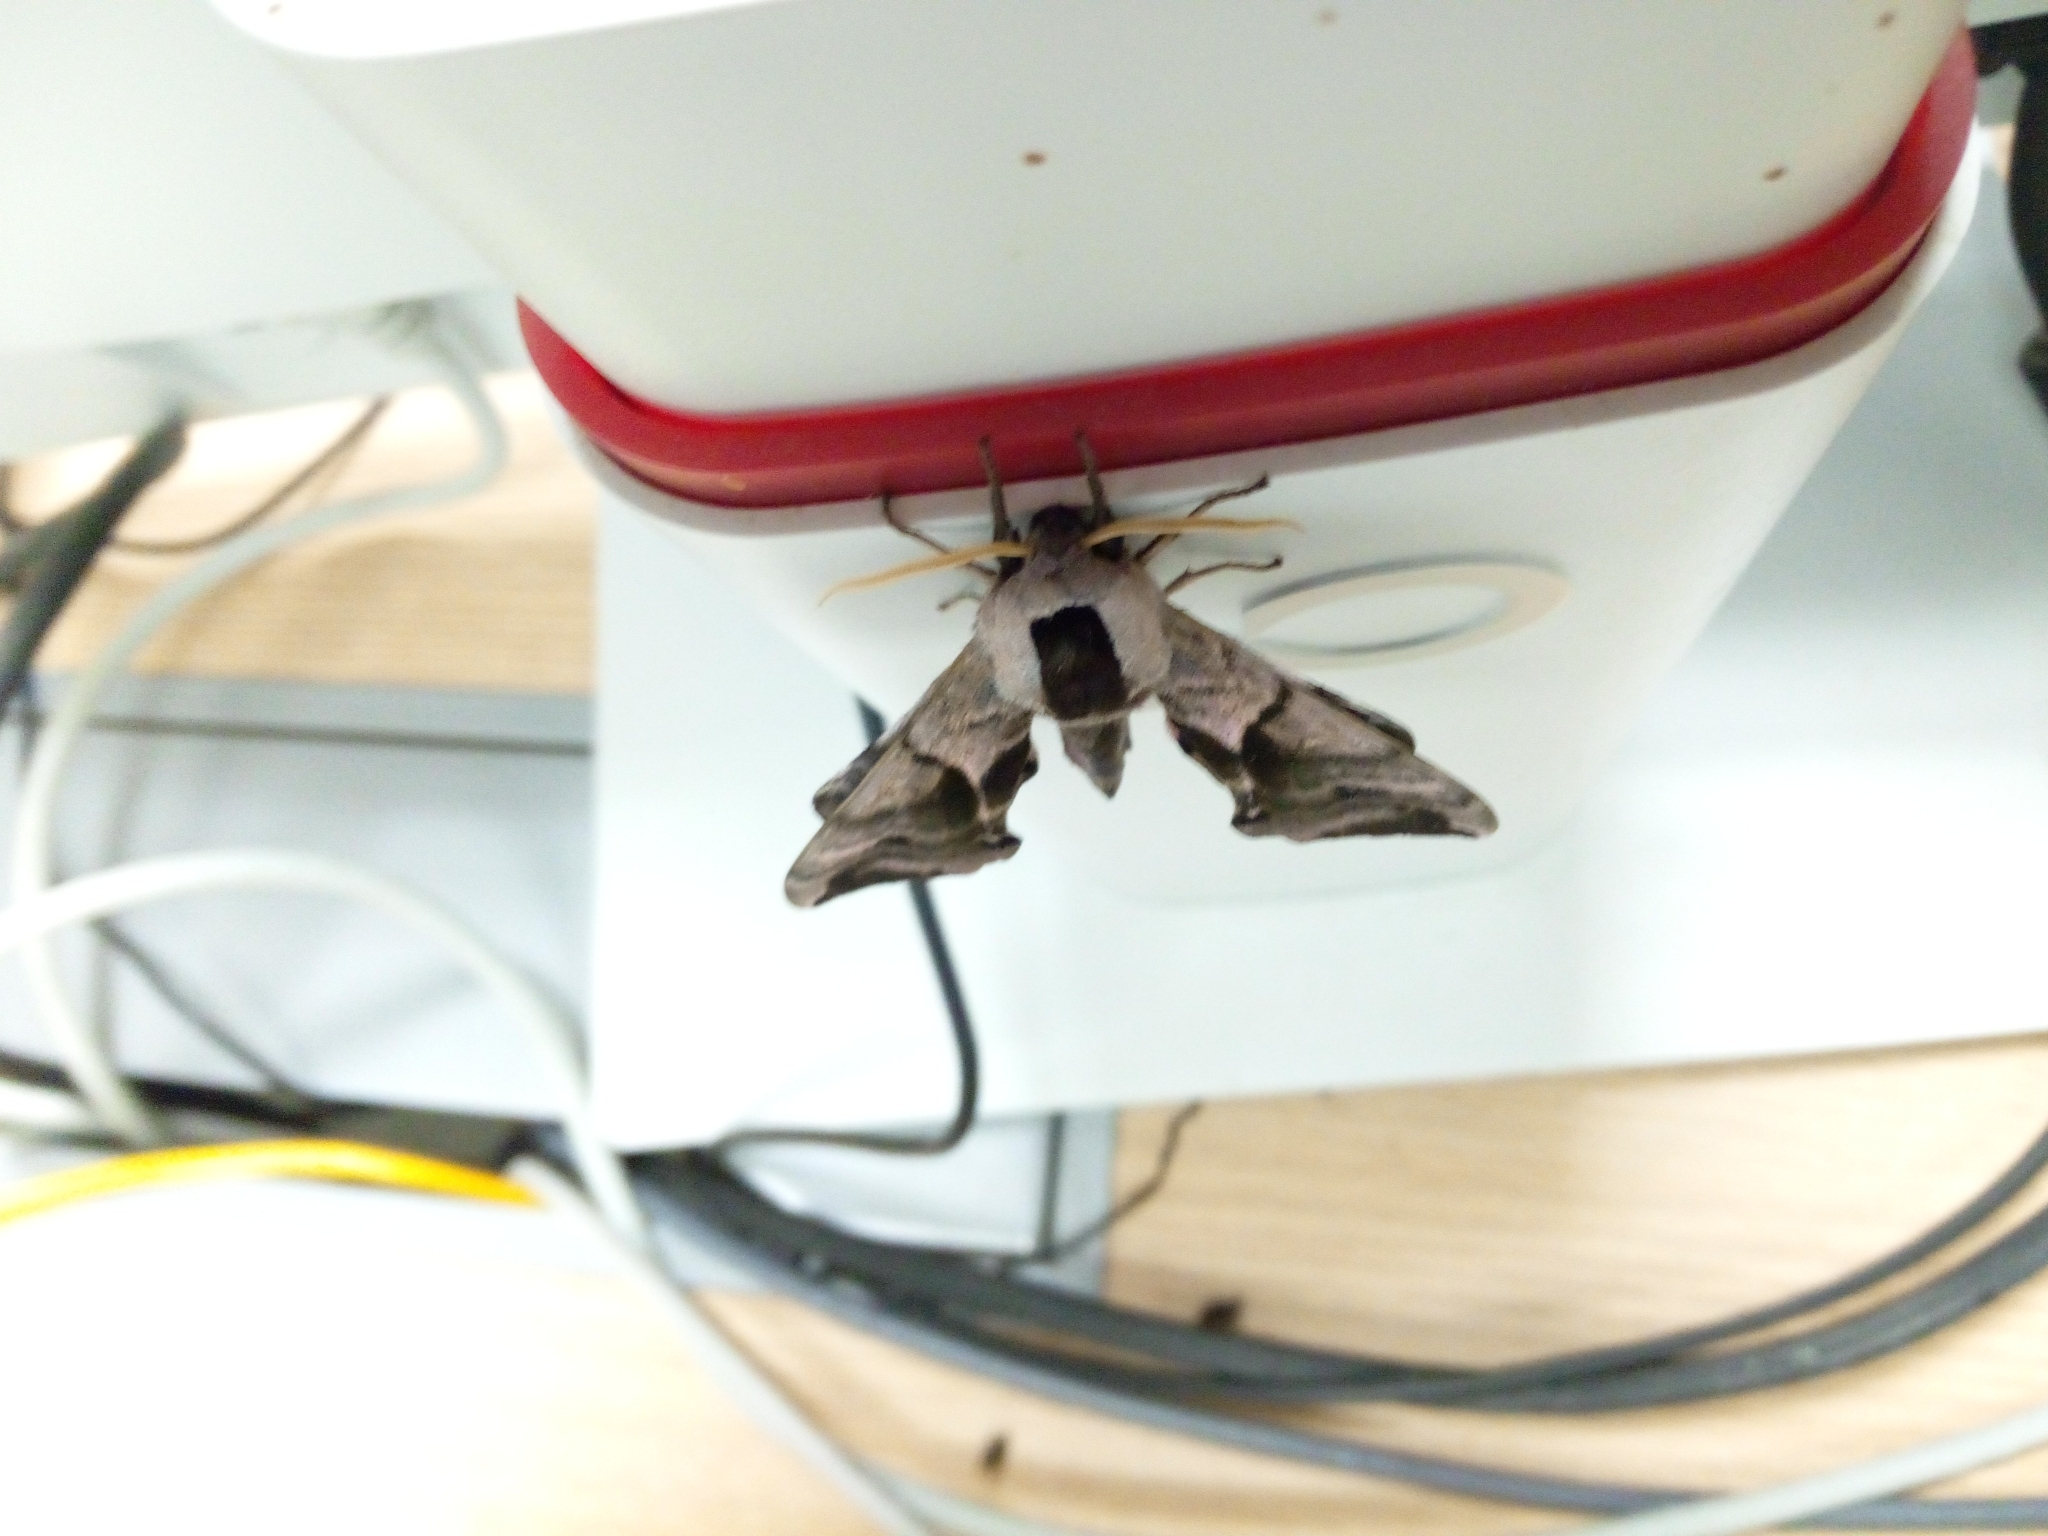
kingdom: Animalia
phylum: Arthropoda
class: Insecta
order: Lepidoptera
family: Sphingidae
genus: Smerinthus
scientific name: Smerinthus ocellata
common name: Eyed hawk-moth
